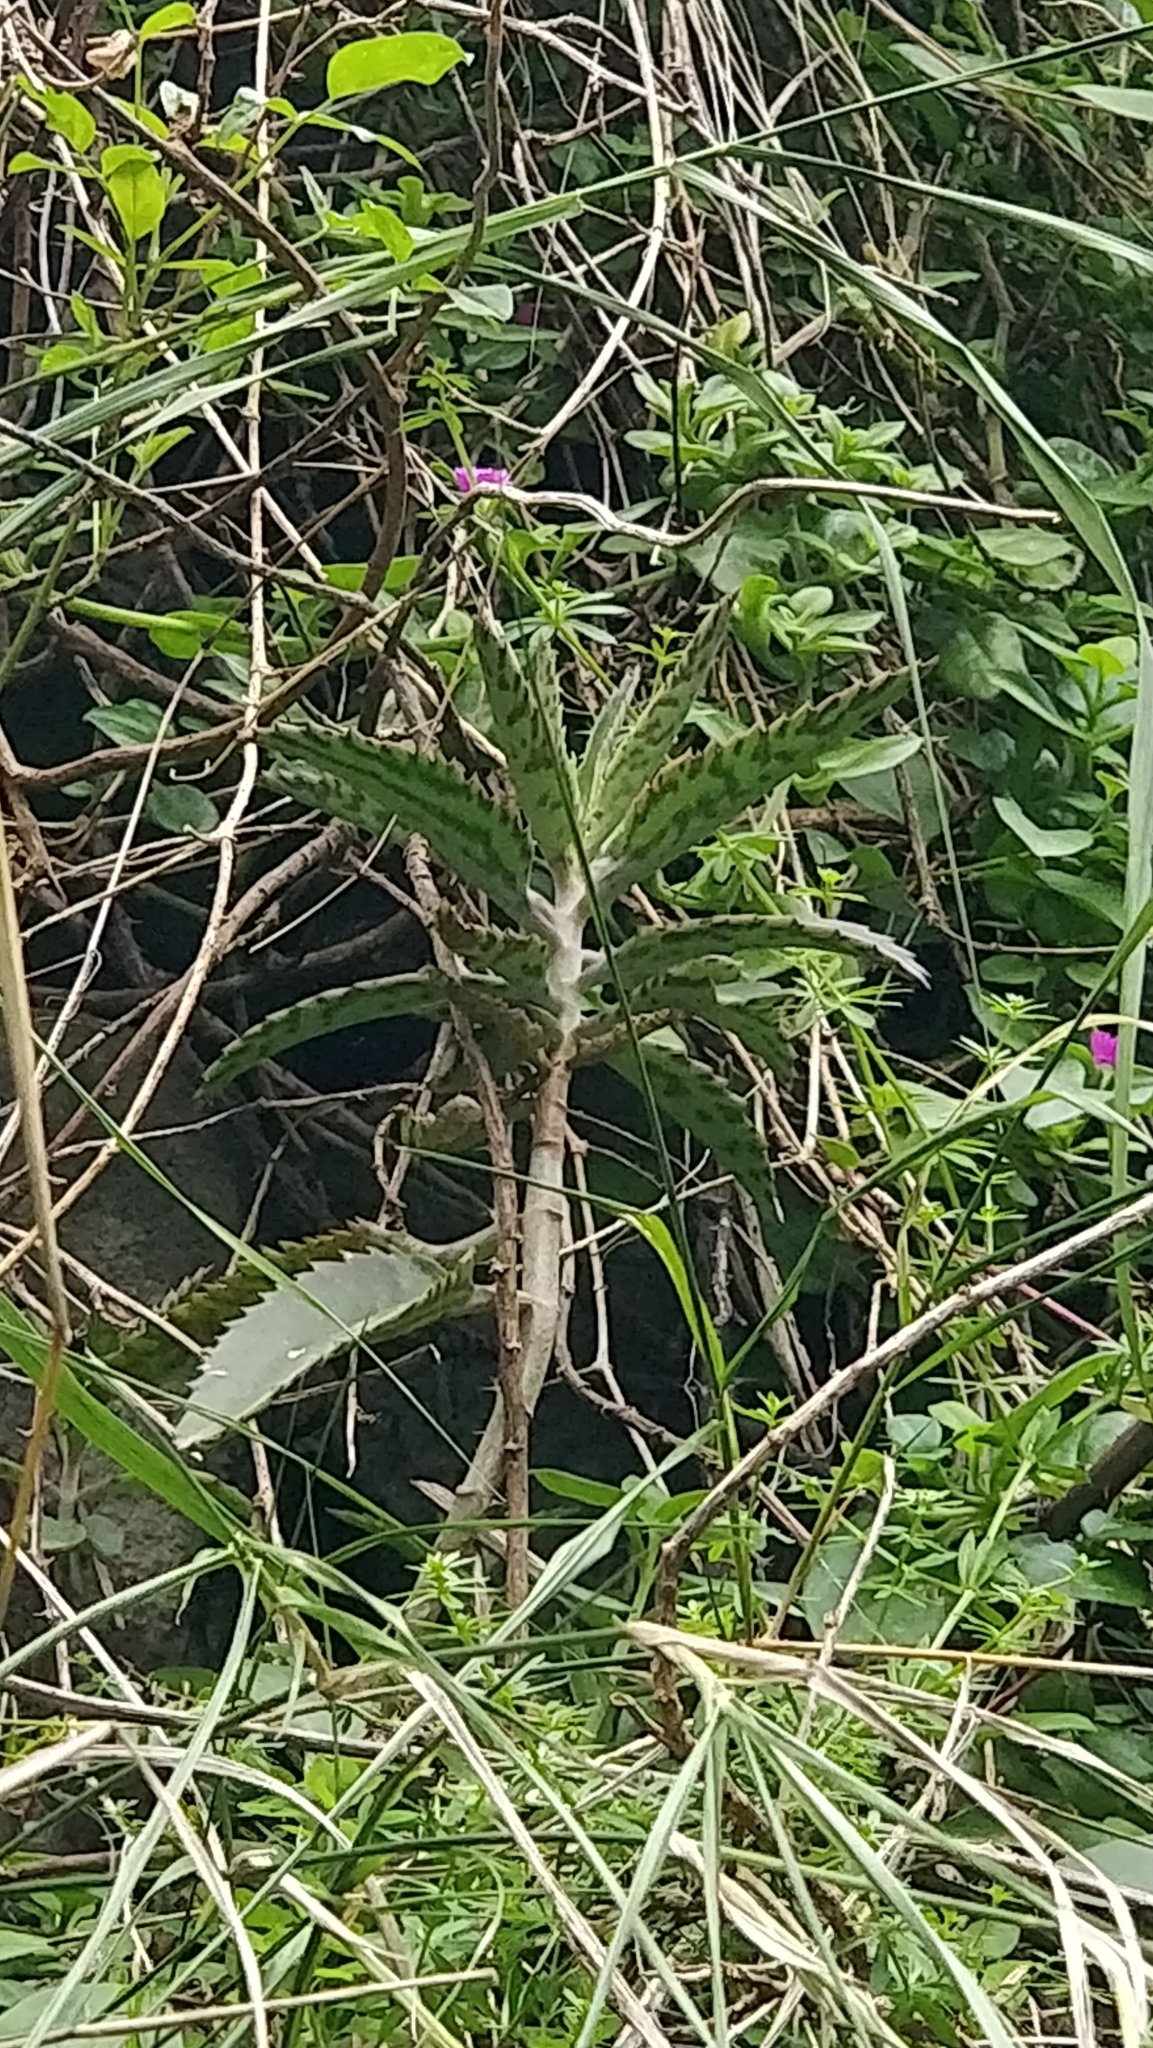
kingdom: Plantae
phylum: Tracheophyta
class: Magnoliopsida
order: Saxifragales
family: Crassulaceae
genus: Kalanchoe
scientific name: Kalanchoe houghtonii
